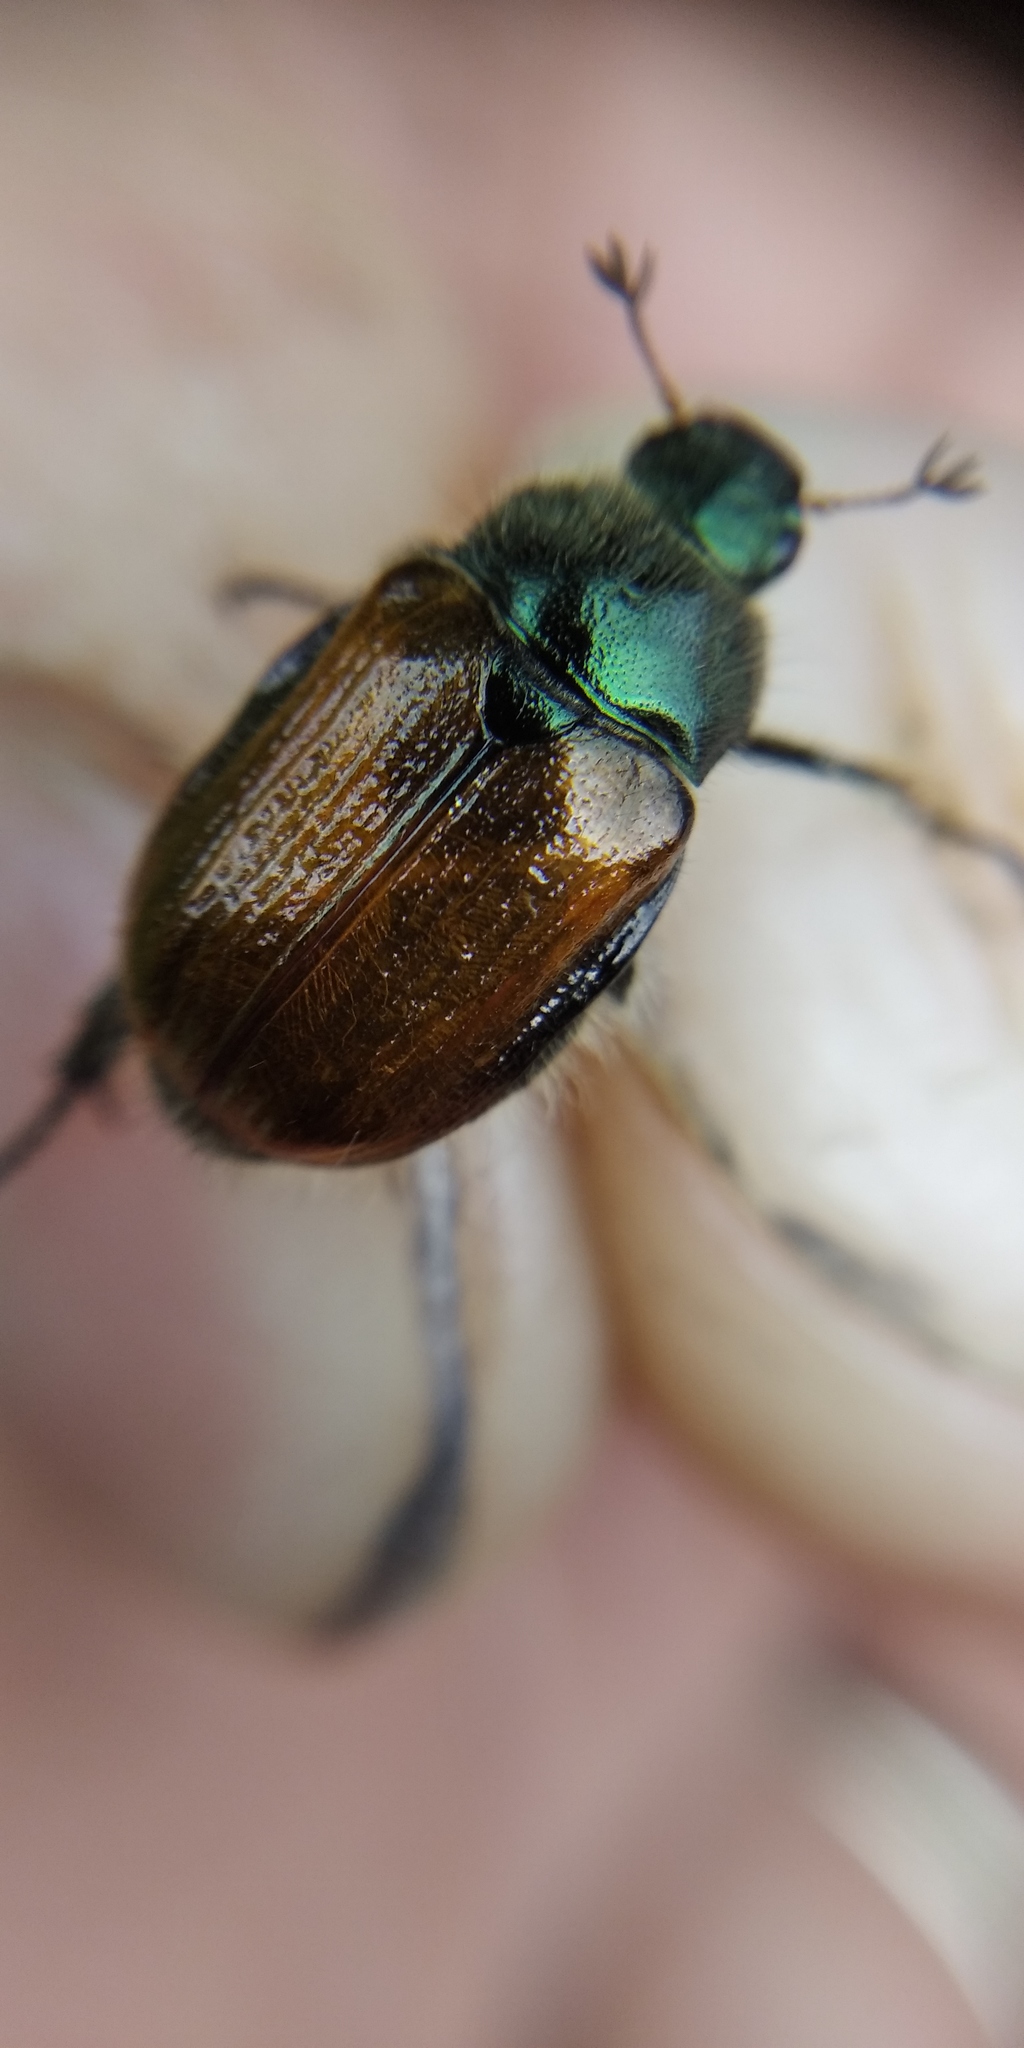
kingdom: Animalia
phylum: Arthropoda
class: Insecta
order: Coleoptera
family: Scarabaeidae
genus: Phyllopertha
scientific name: Phyllopertha horticola
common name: Garden chafer
